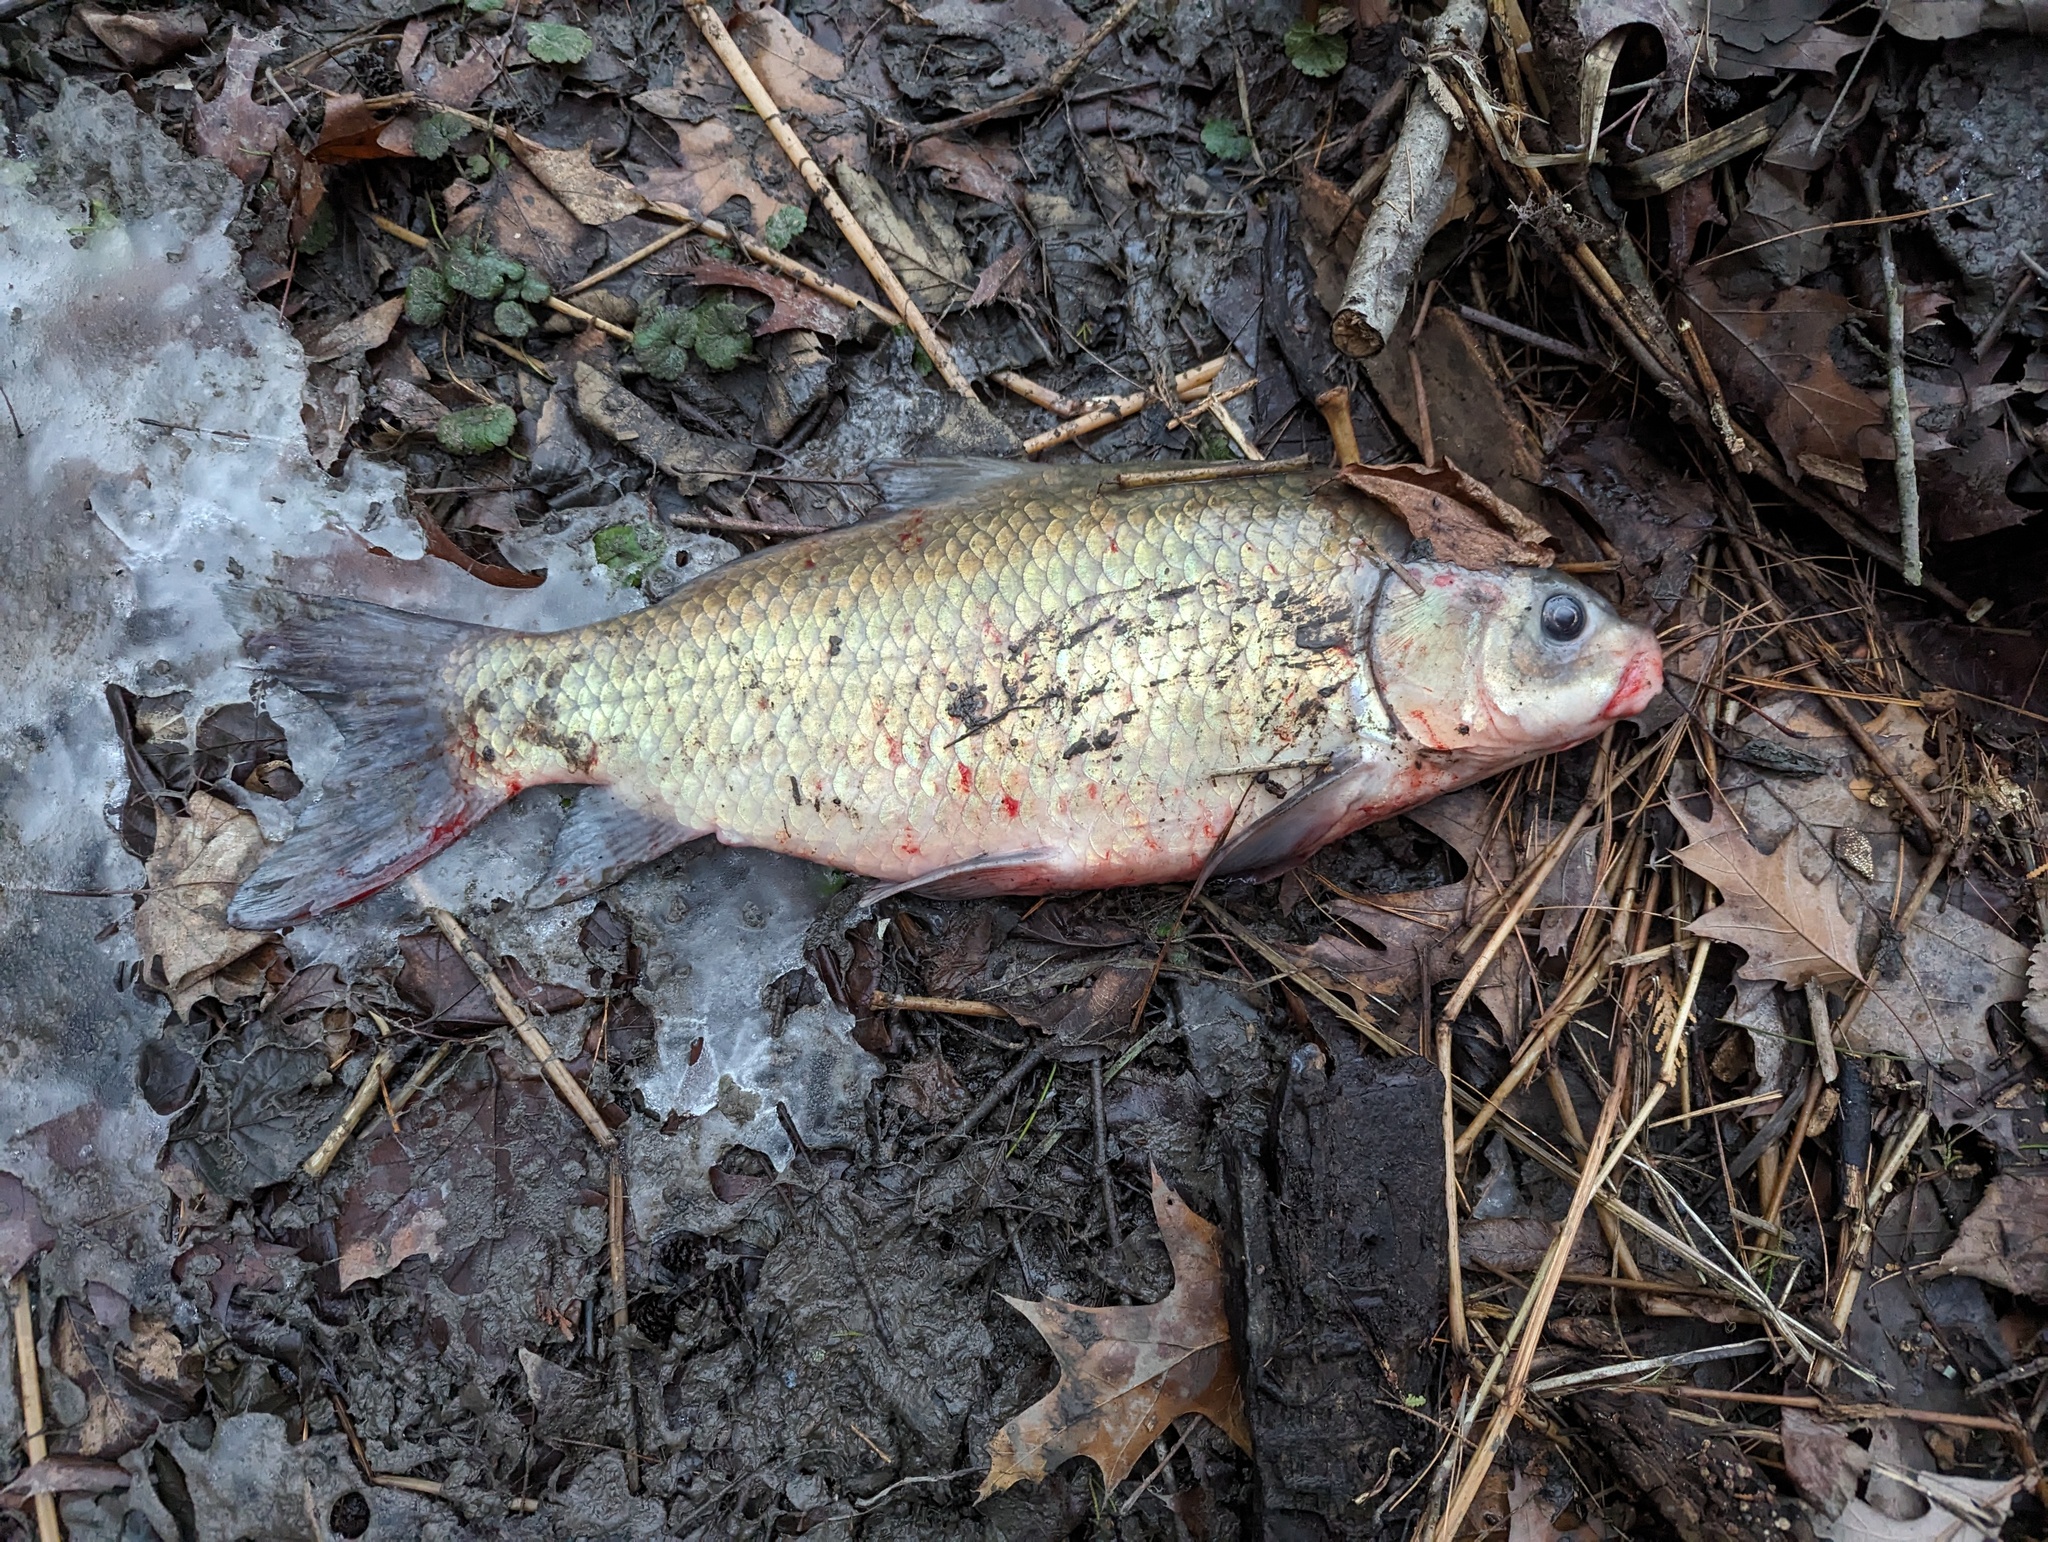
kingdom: Animalia
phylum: Chordata
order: Cypriniformes
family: Catostomidae
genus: Ictiobus
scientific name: Ictiobus bubalus
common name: Smallmouth buffalo
